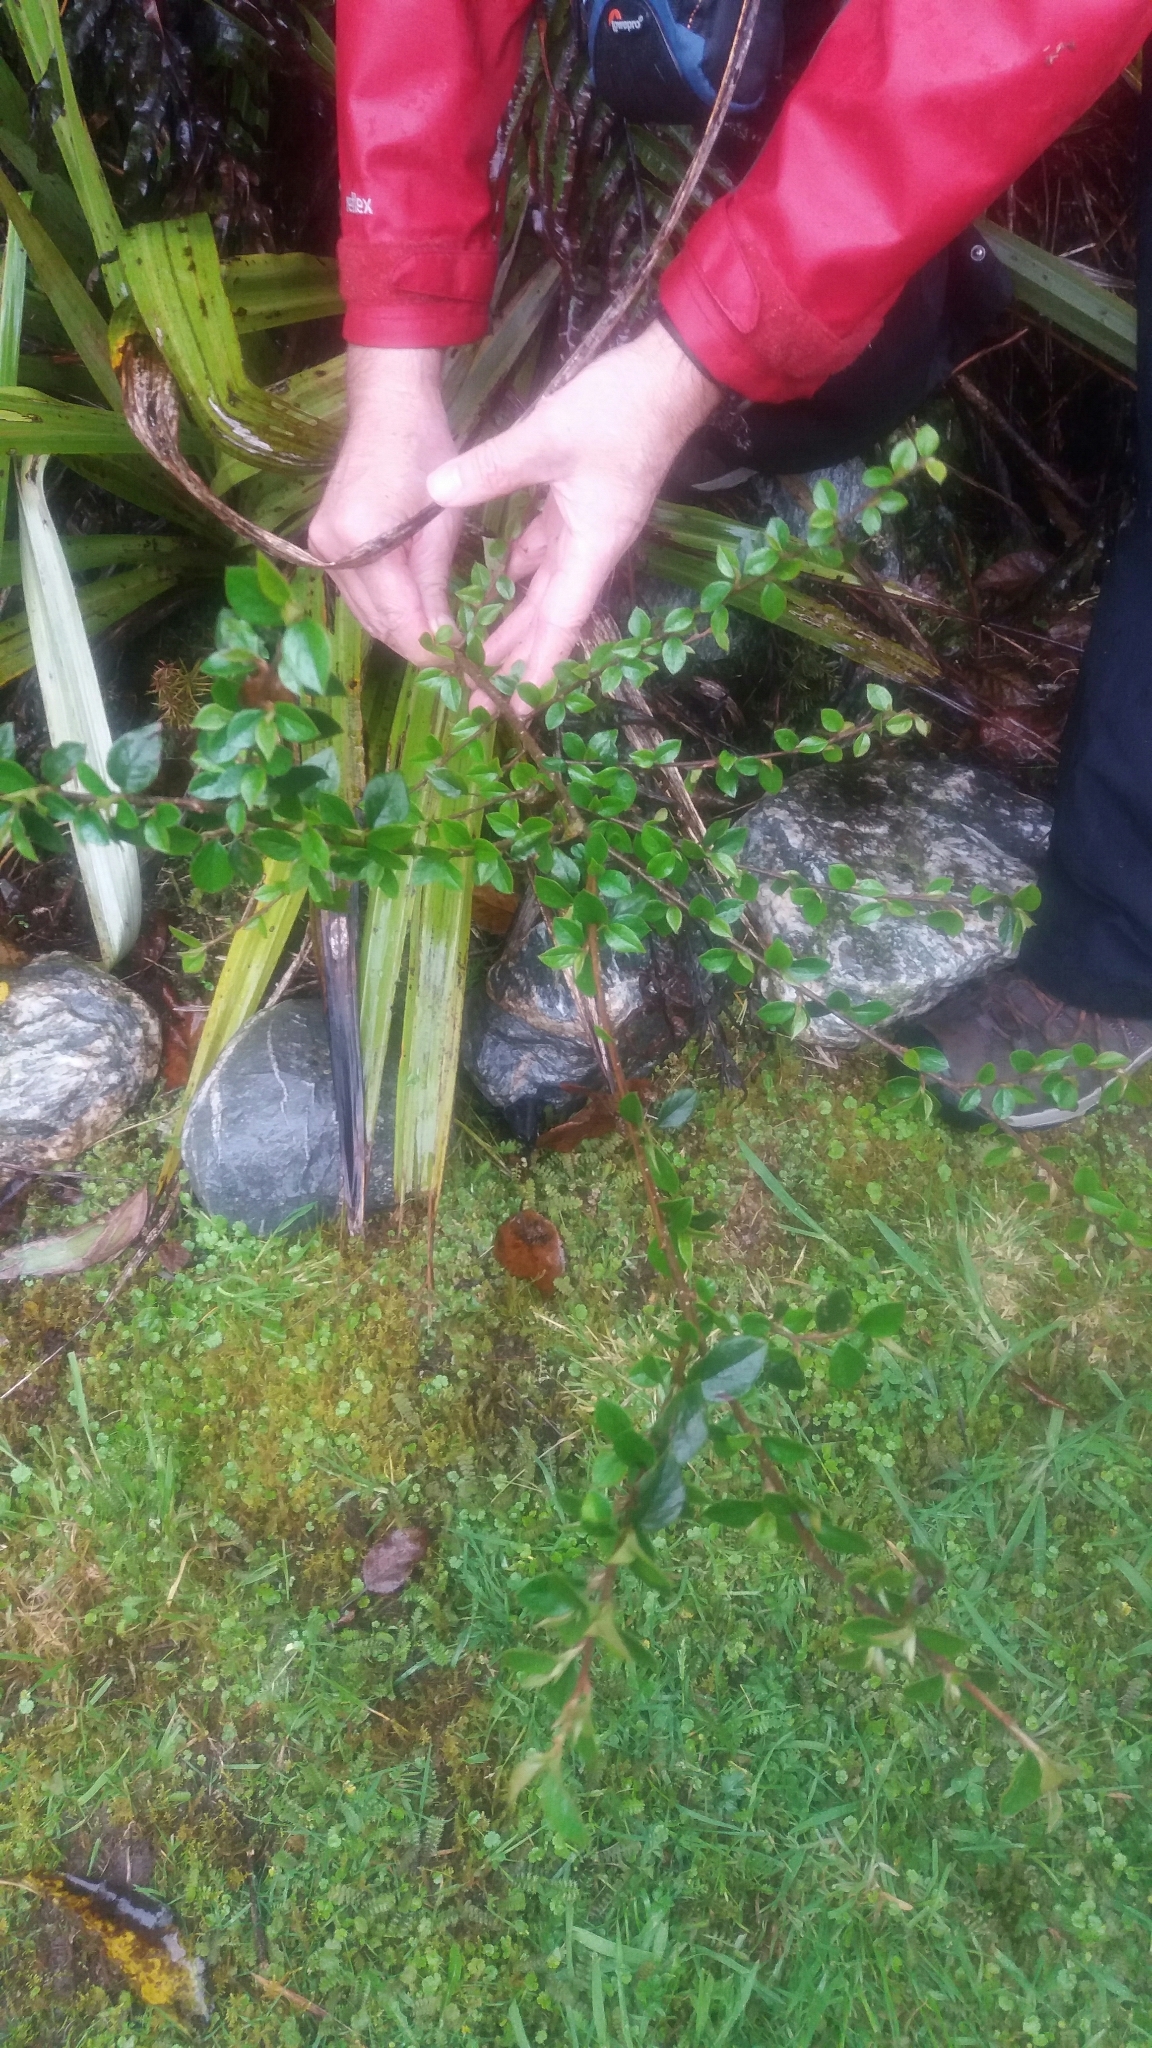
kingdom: Plantae
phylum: Tracheophyta
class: Magnoliopsida
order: Rosales
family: Rosaceae
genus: Cotoneaster
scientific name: Cotoneaster simonsii
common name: Himalayan cotoneaster
